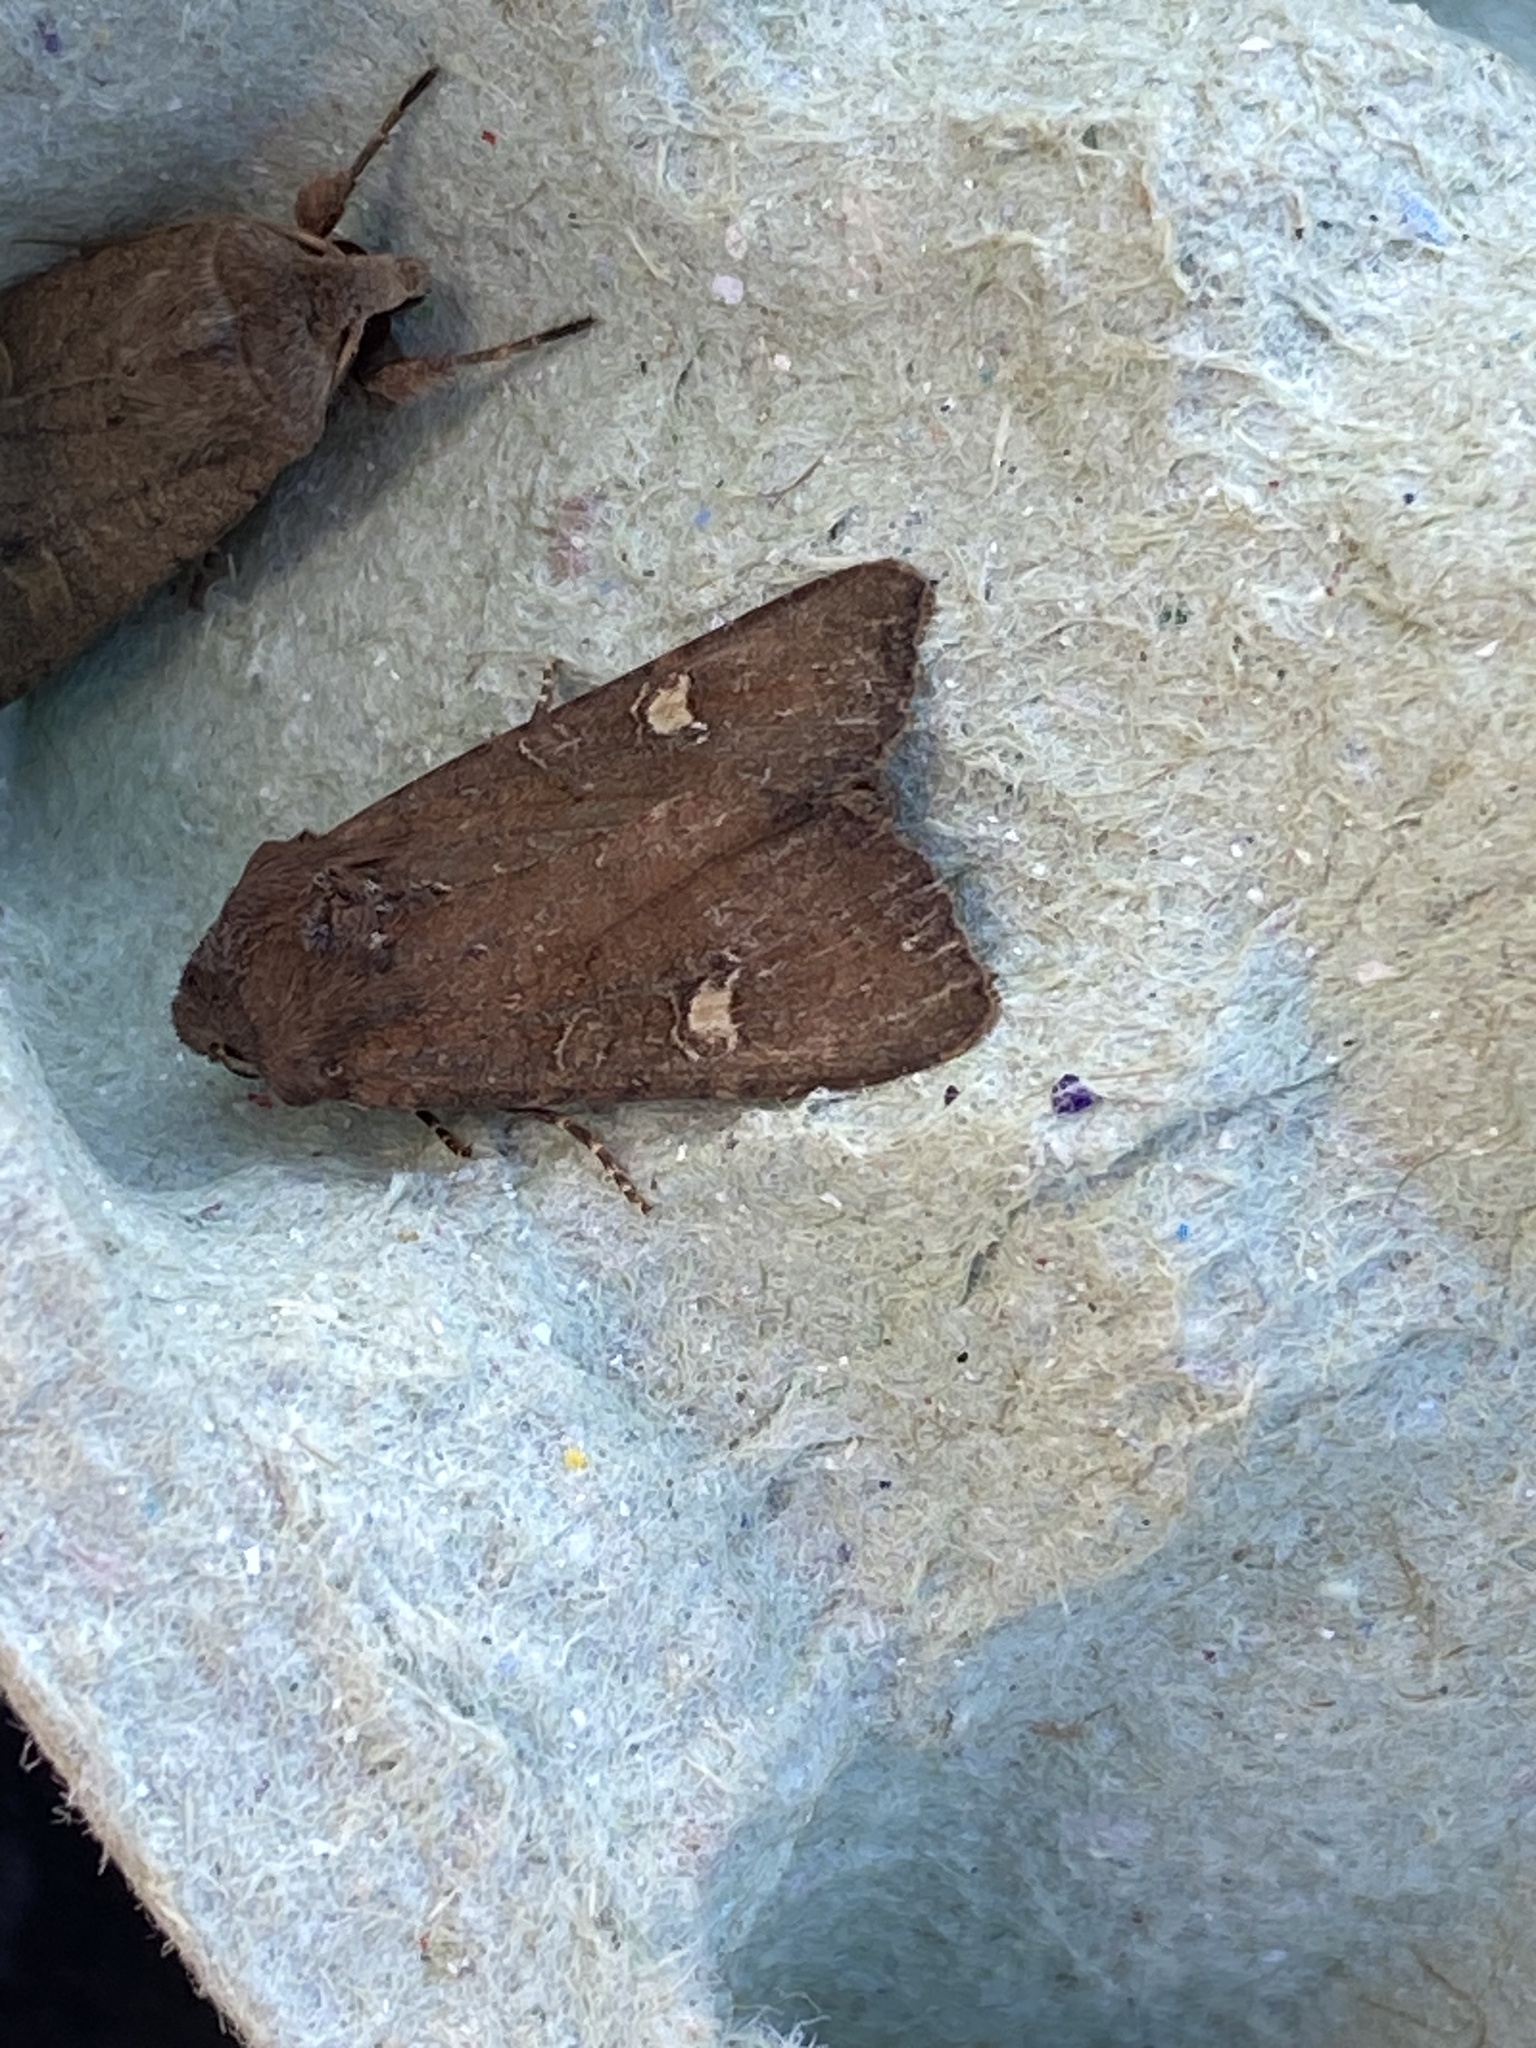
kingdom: Animalia
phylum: Arthropoda
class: Insecta
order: Lepidoptera
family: Noctuidae
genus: Helotropha
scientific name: Helotropha leucostigma
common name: The crescent
